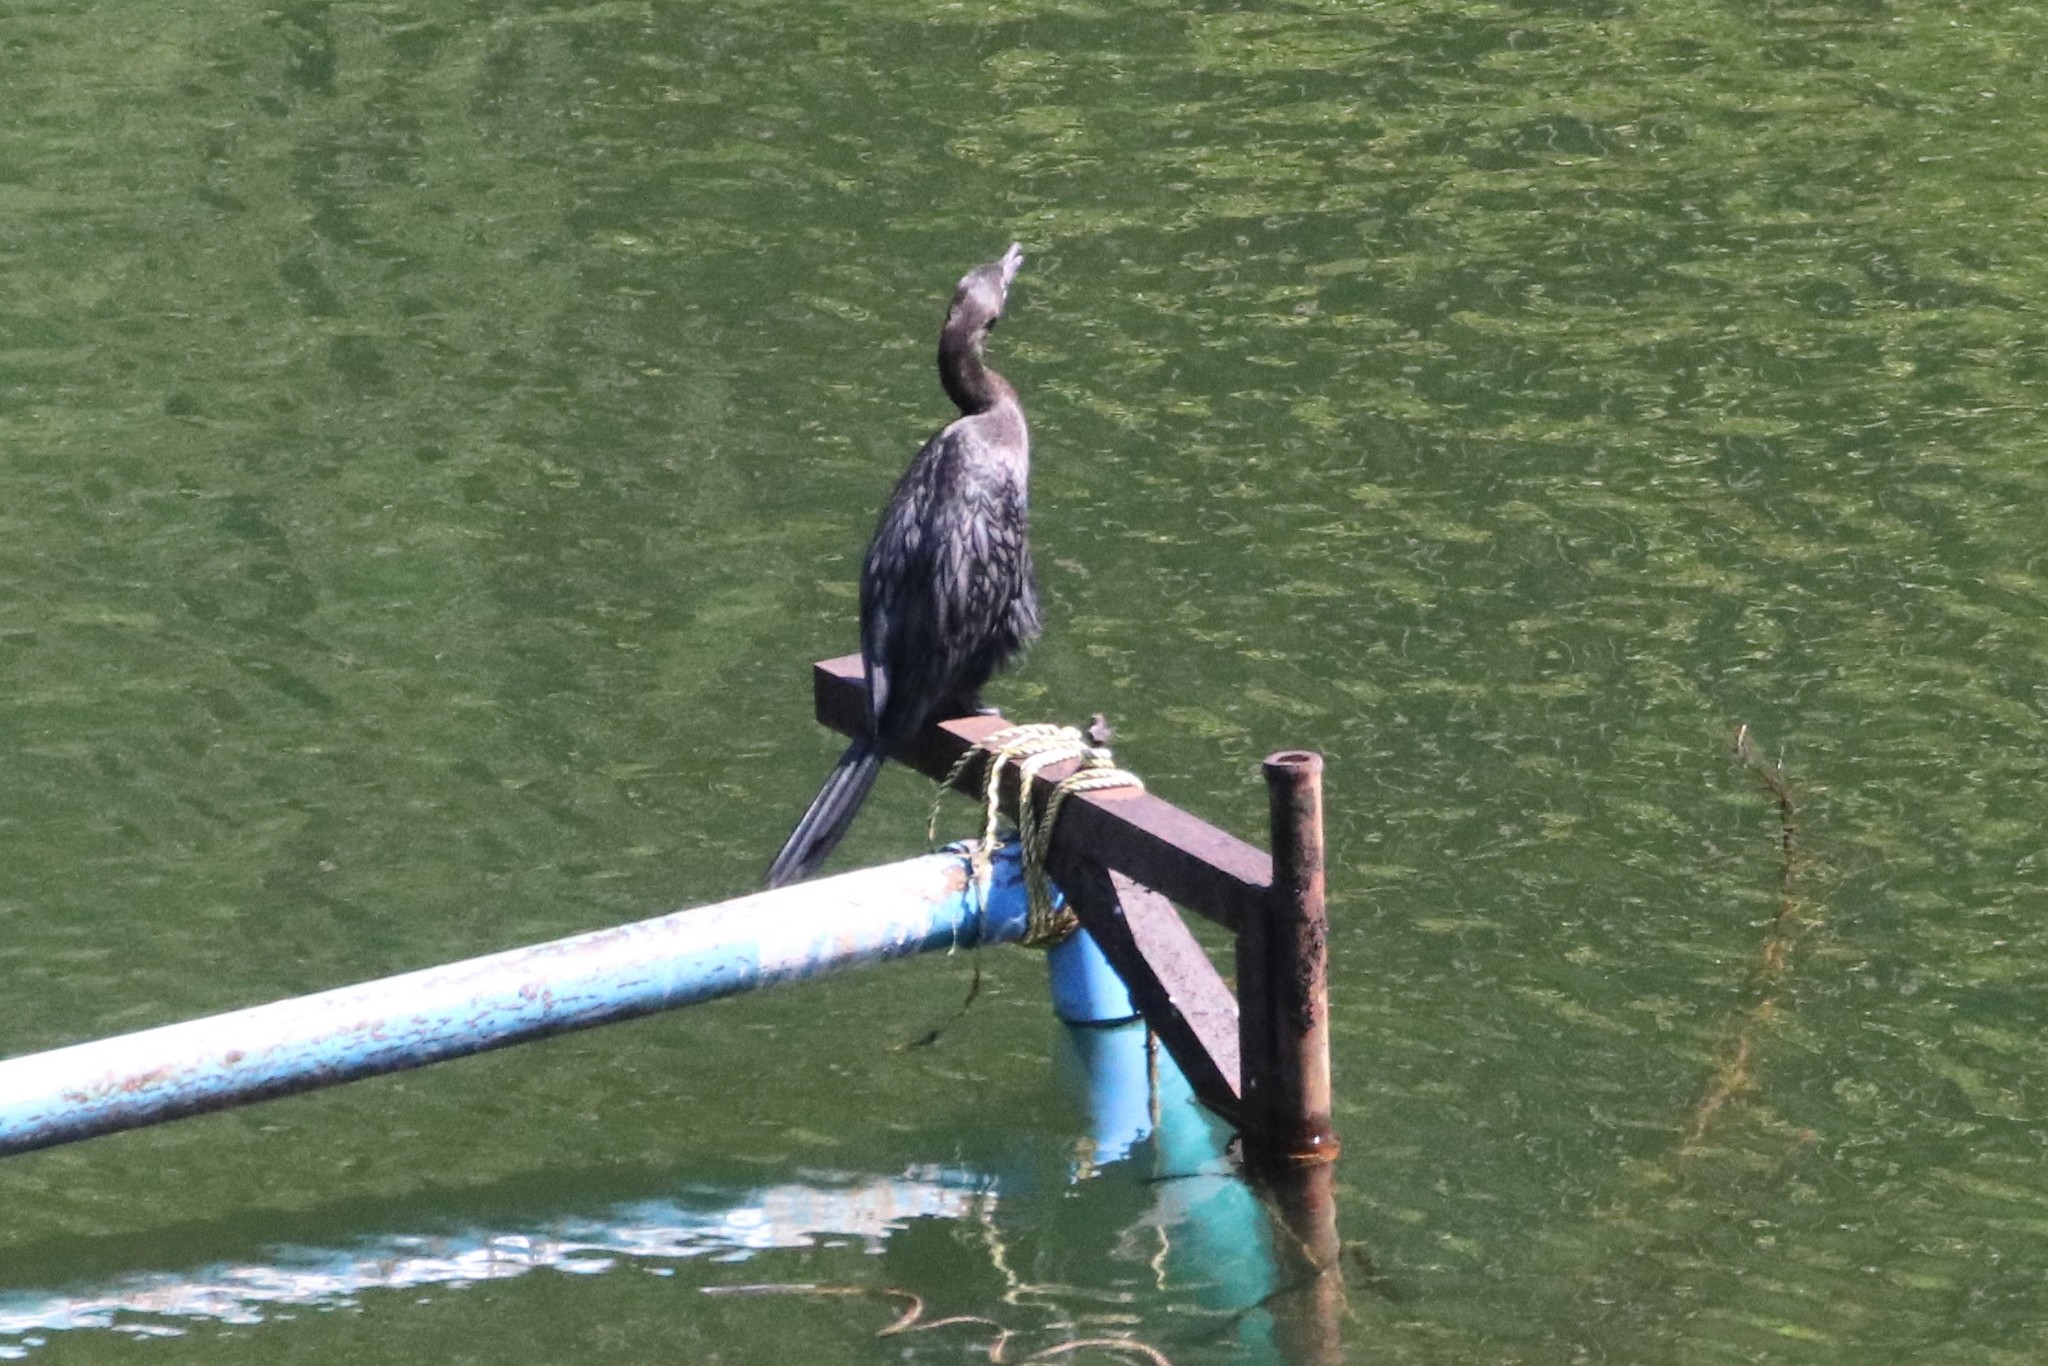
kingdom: Animalia
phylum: Chordata
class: Aves
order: Suliformes
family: Phalacrocoracidae
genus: Microcarbo
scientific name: Microcarbo niger
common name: Little cormorant
